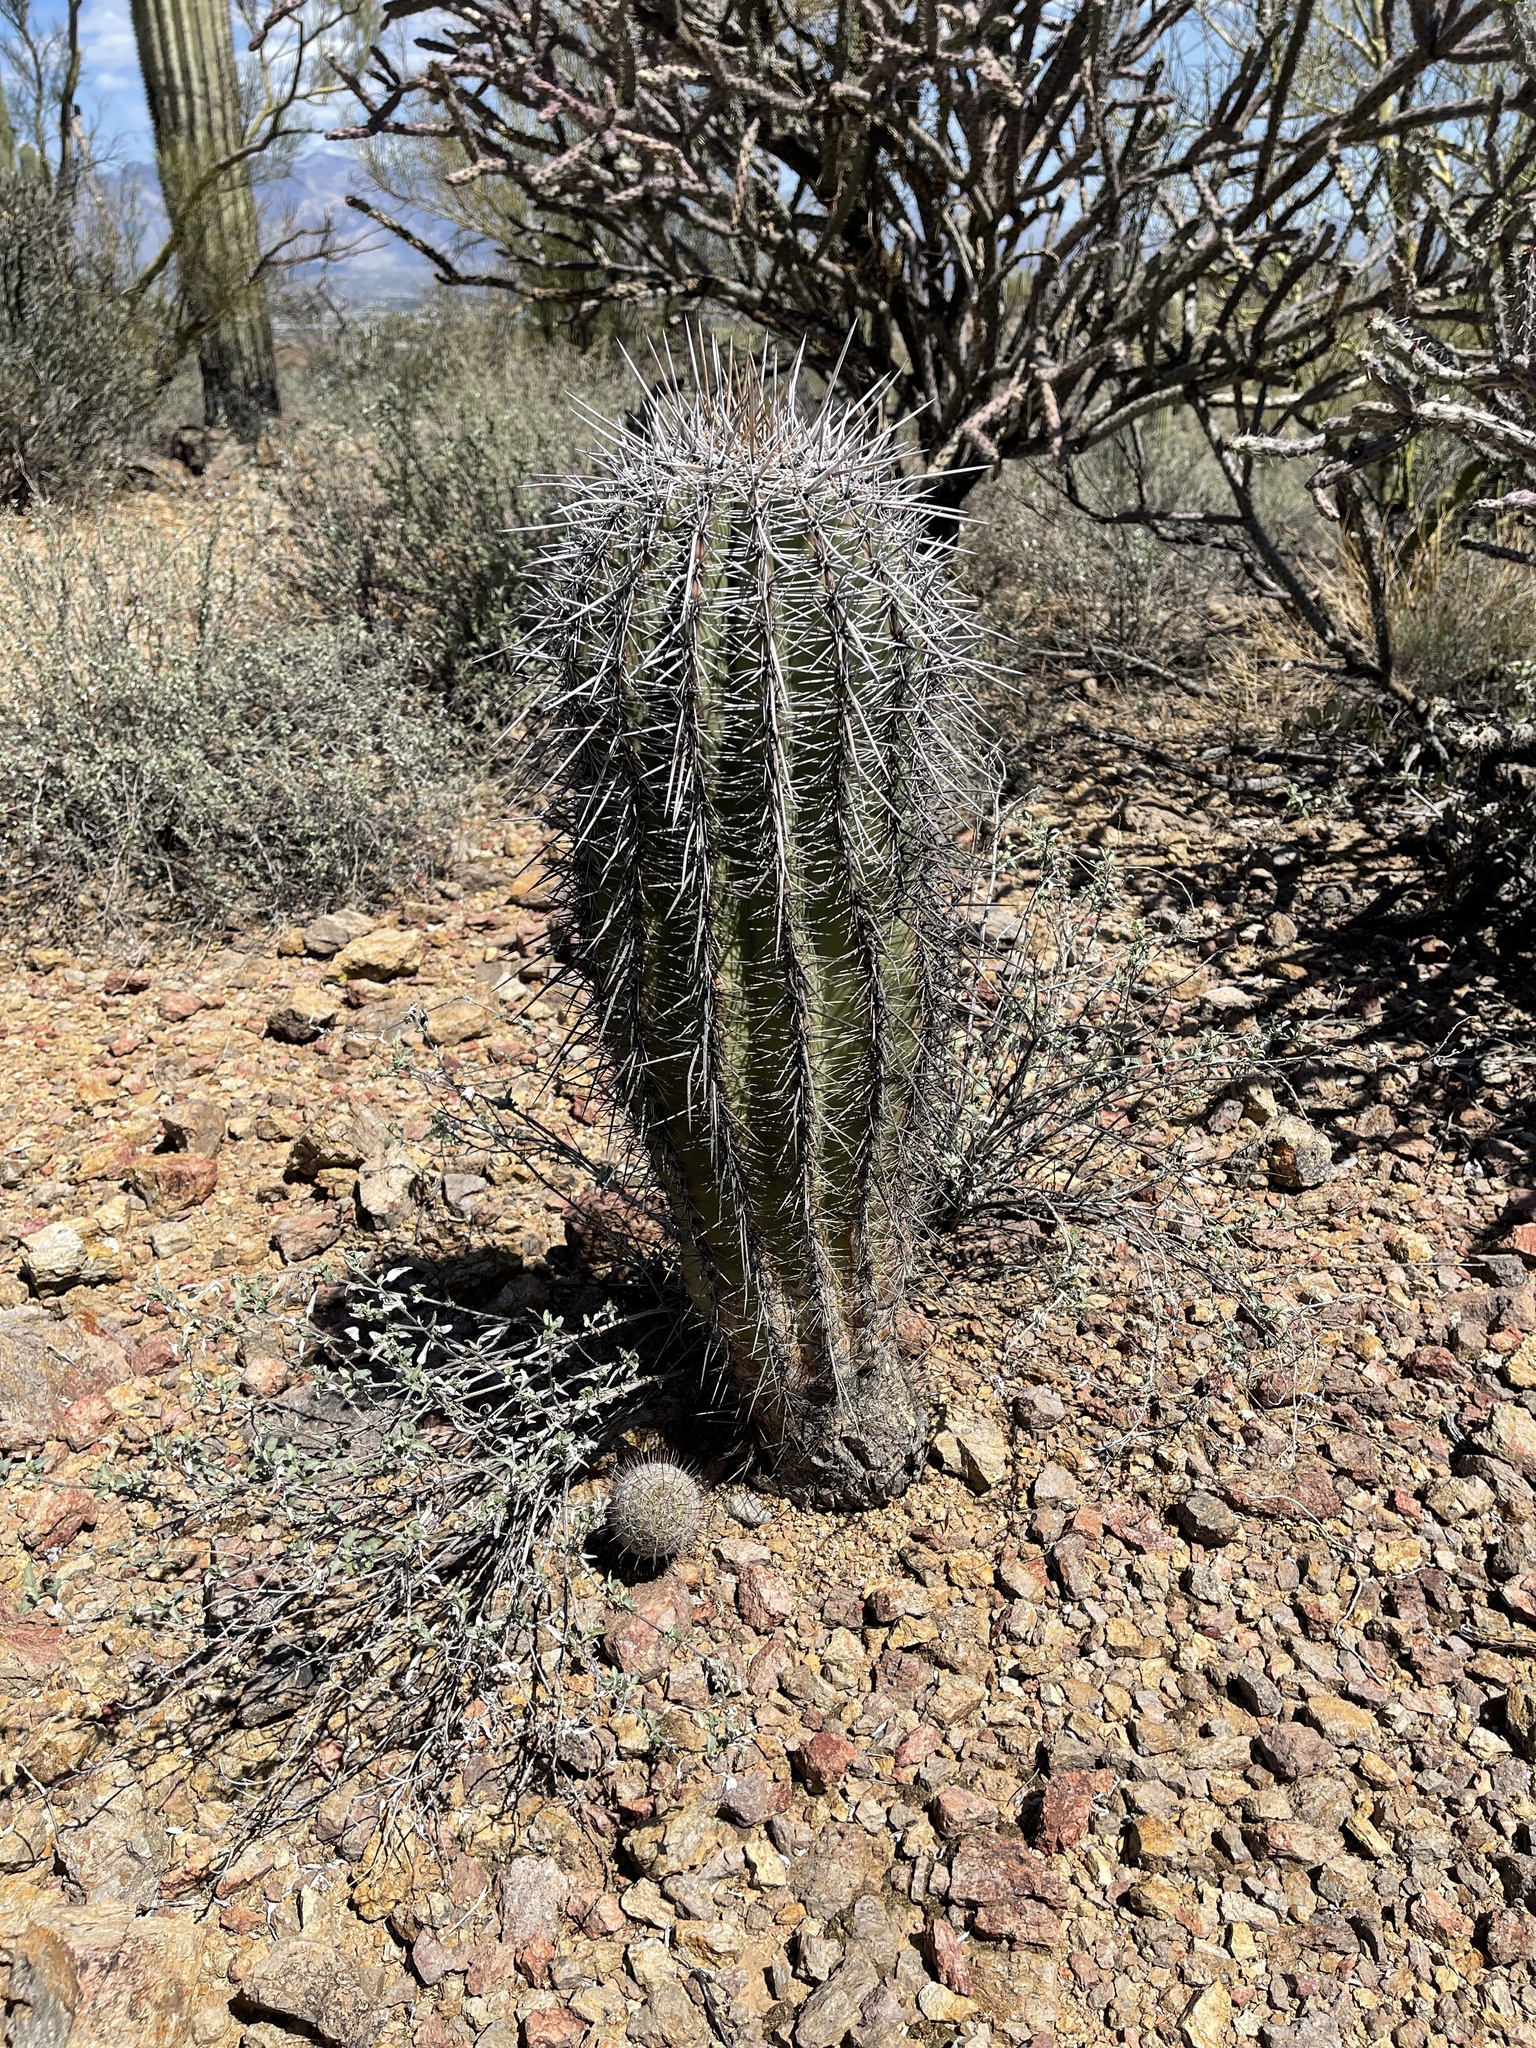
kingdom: Plantae
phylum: Tracheophyta
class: Magnoliopsida
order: Caryophyllales
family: Cactaceae
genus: Carnegiea
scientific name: Carnegiea gigantea
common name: Saguaro
